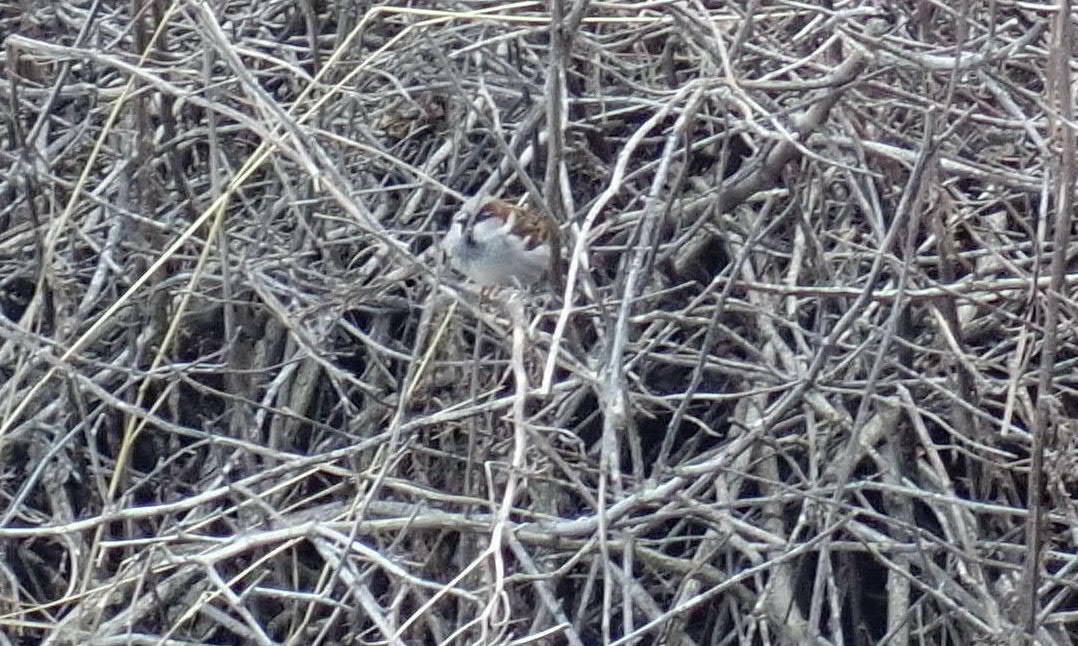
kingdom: Animalia
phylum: Chordata
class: Aves
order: Passeriformes
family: Passeridae
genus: Passer
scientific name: Passer domesticus
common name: House sparrow
